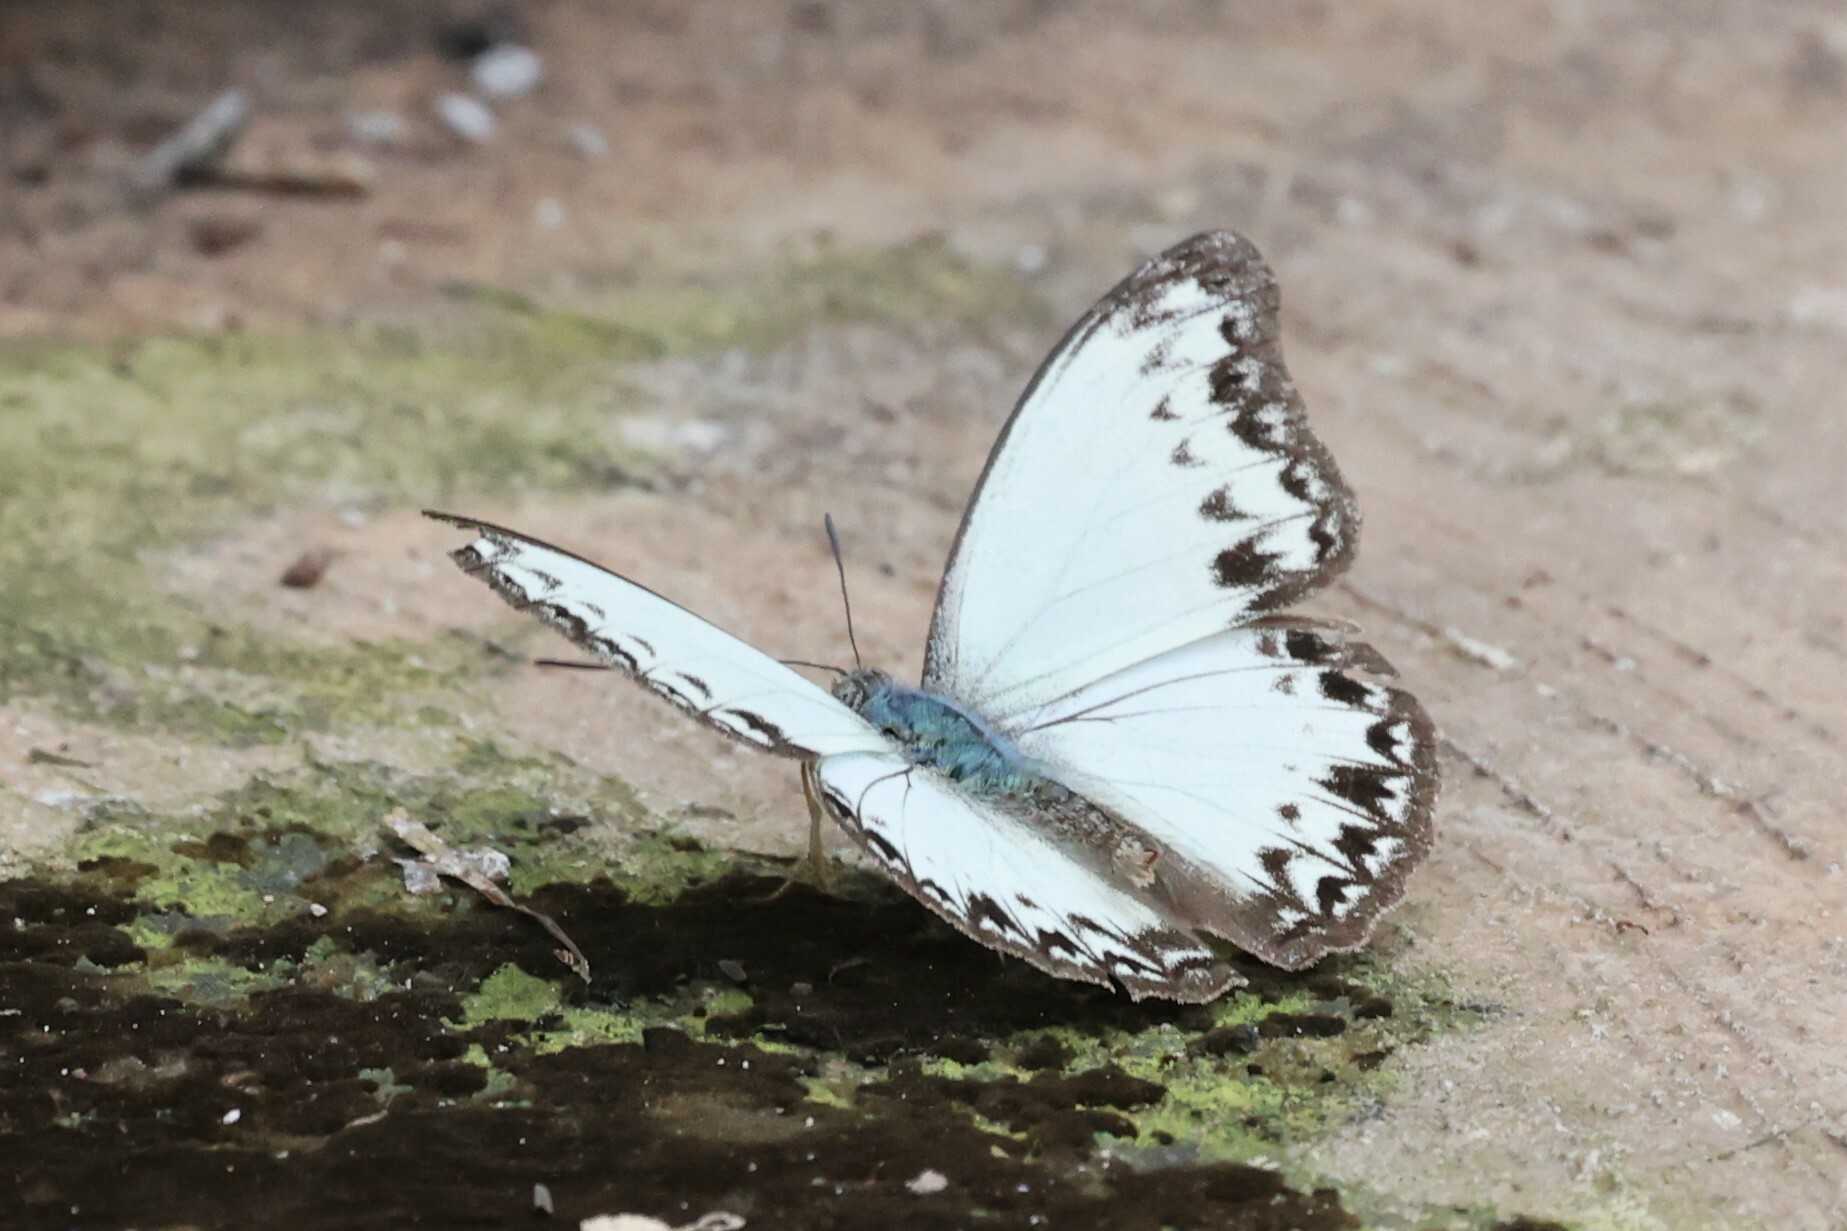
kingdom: Animalia
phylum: Arthropoda
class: Insecta
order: Lepidoptera
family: Nymphalidae
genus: Cymothoe
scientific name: Cymothoe caenis
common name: Common glider
